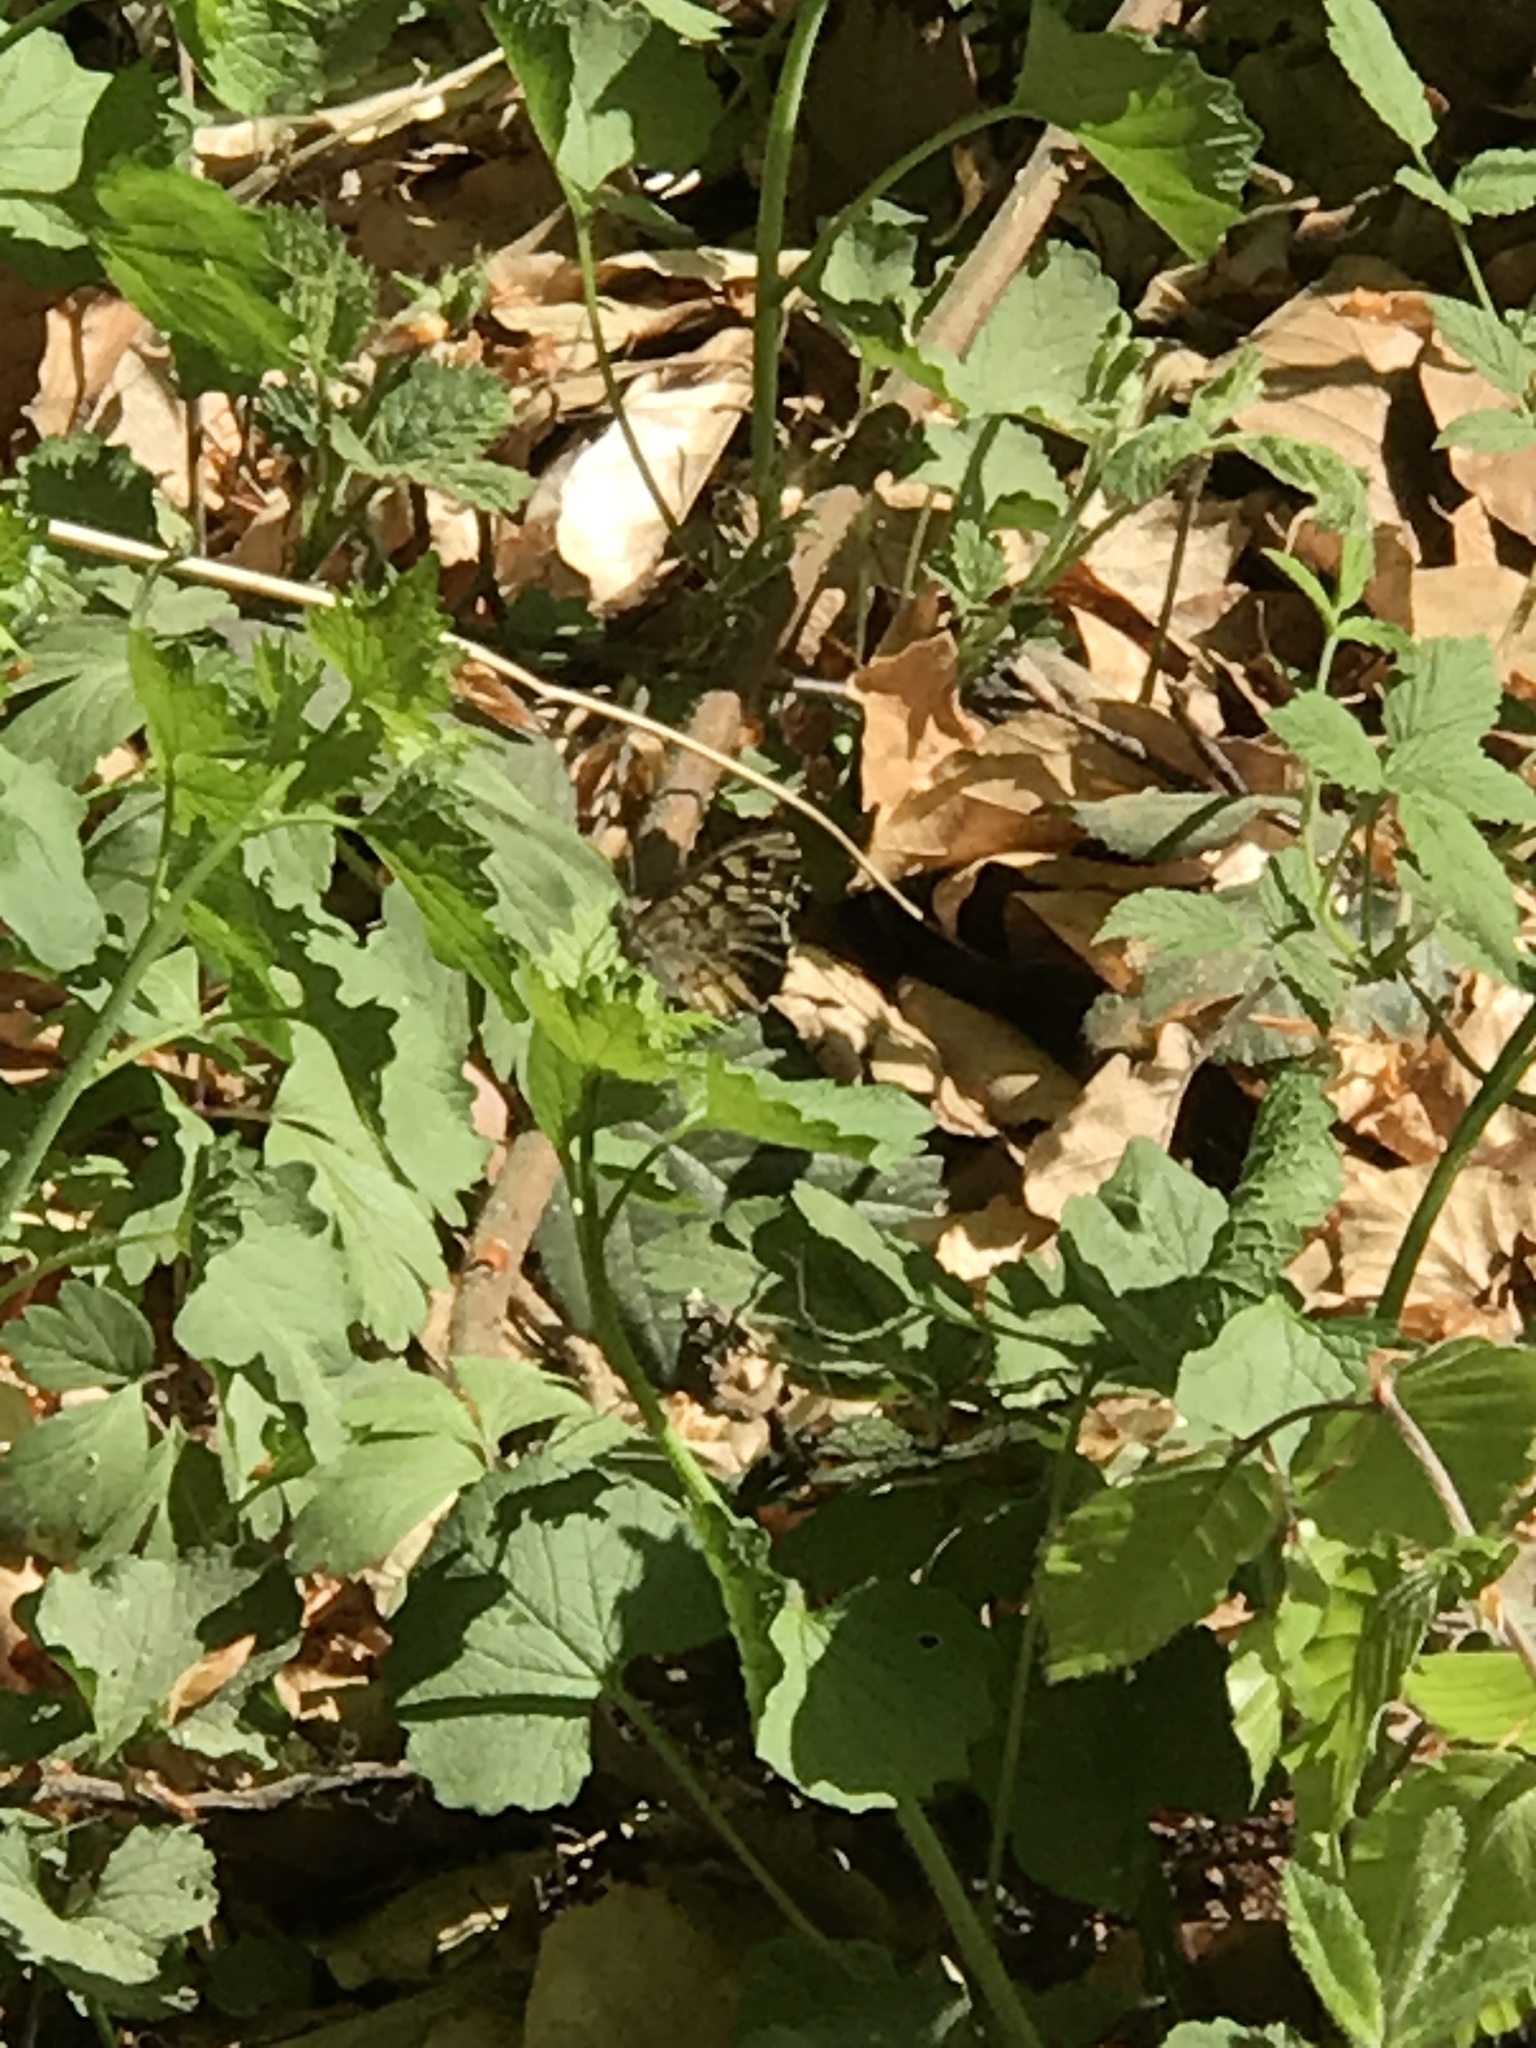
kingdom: Animalia
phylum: Arthropoda
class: Insecta
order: Lepidoptera
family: Nymphalidae
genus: Pararge
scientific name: Pararge aegeria
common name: Speckled wood
